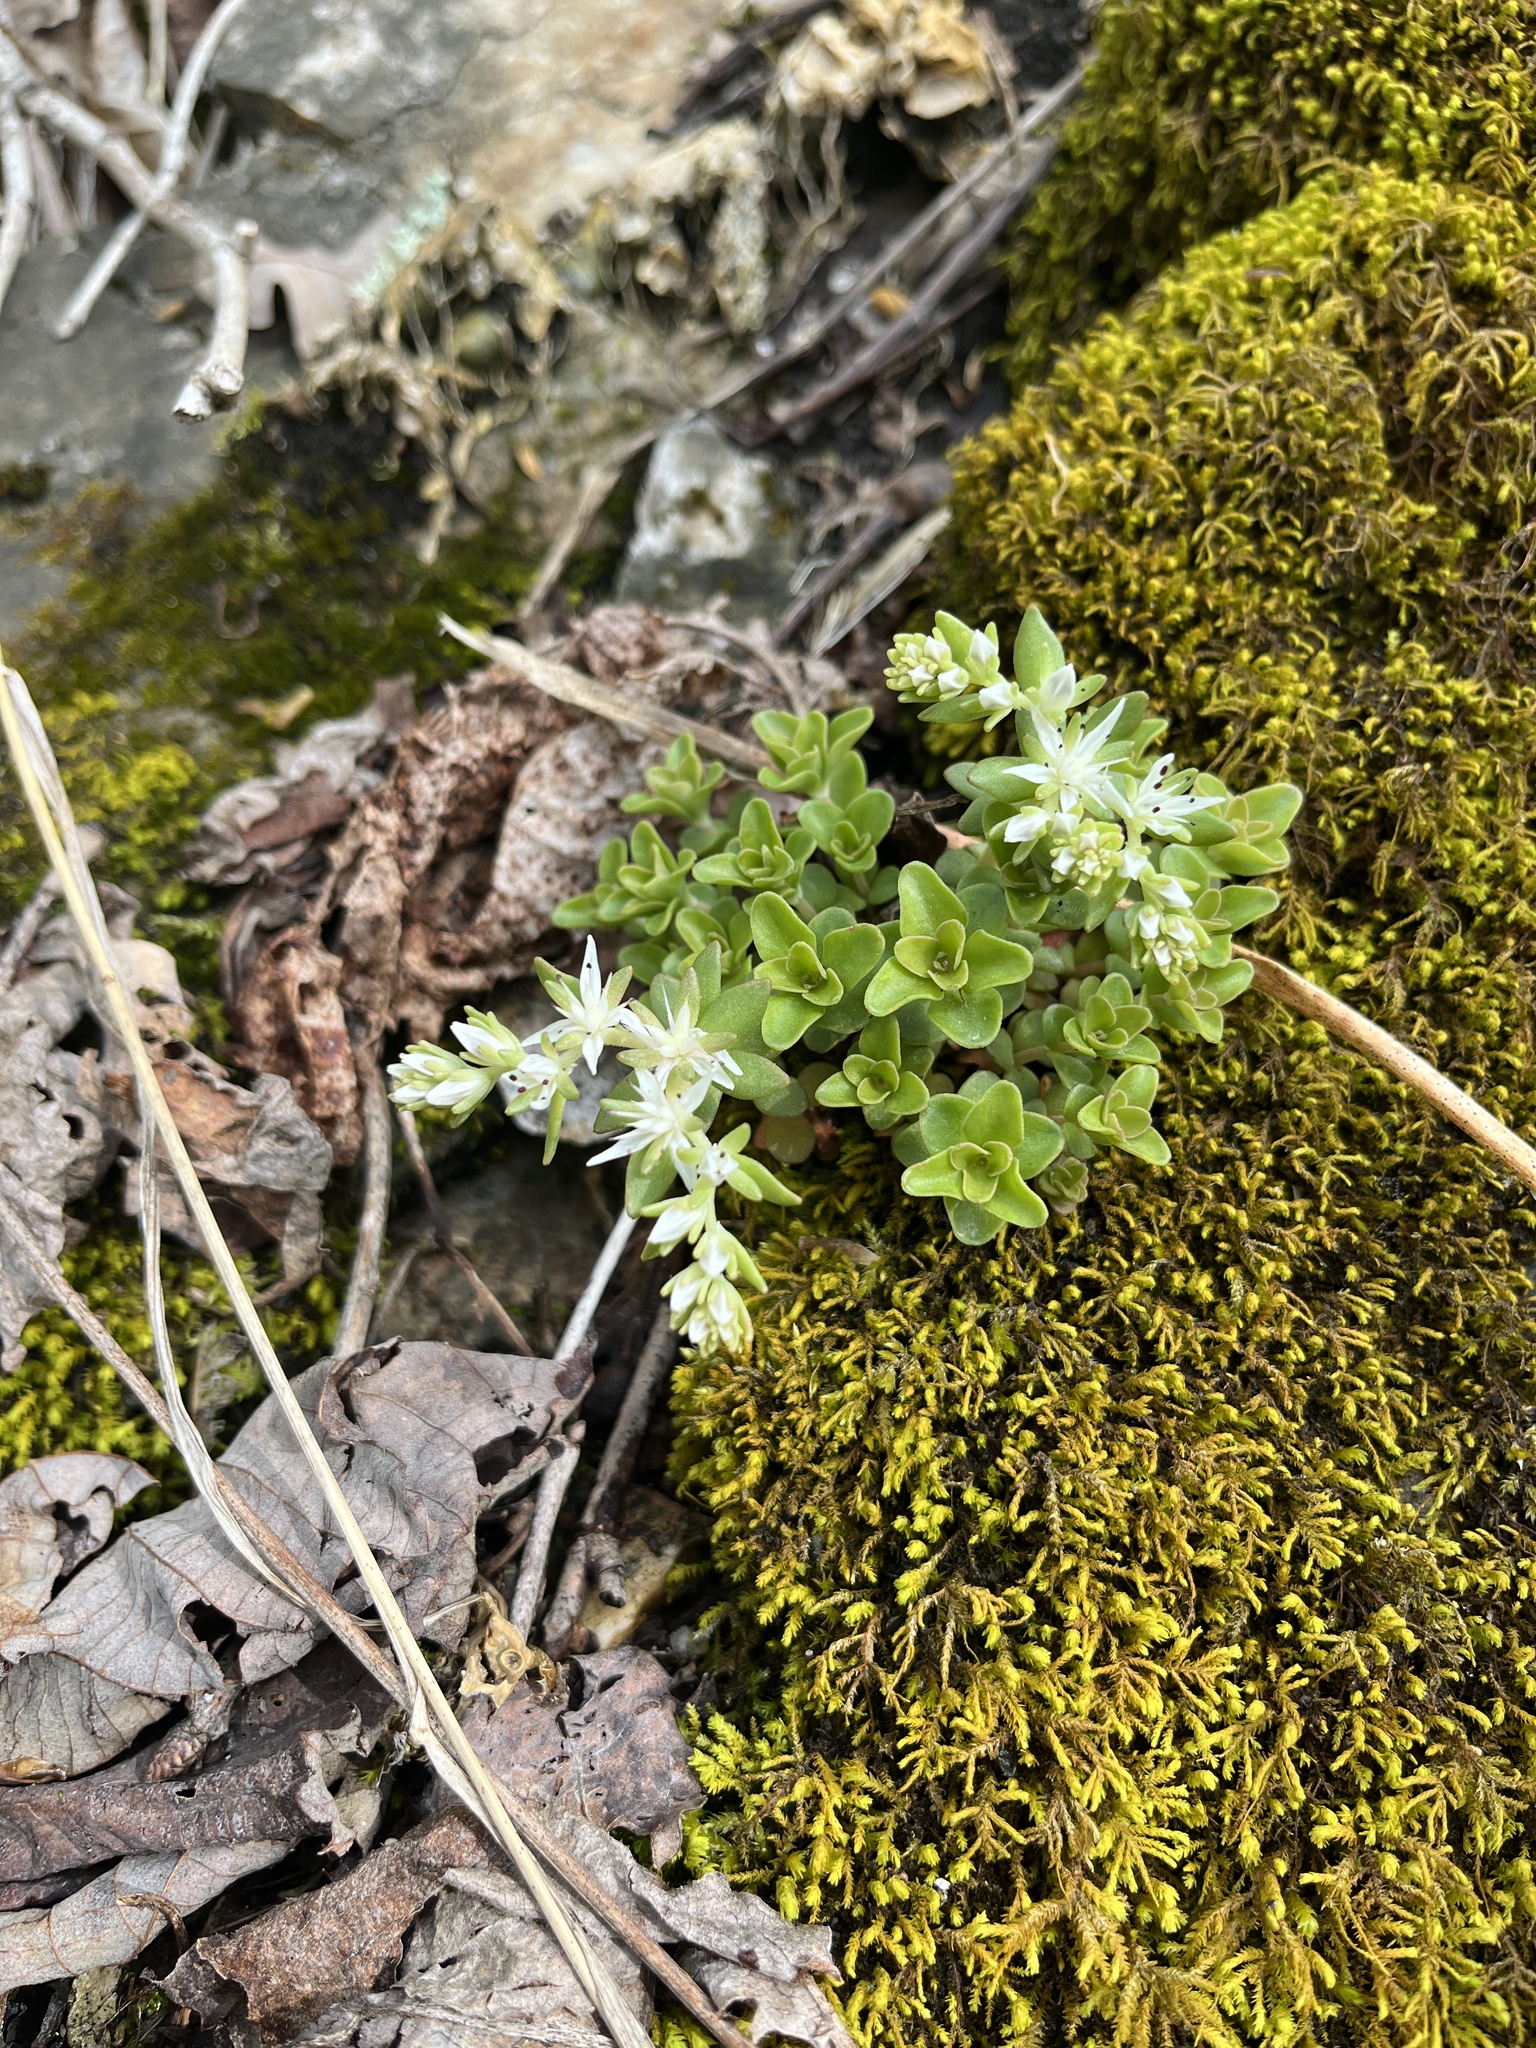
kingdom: Plantae
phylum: Tracheophyta
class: Magnoliopsida
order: Saxifragales
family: Crassulaceae
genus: Sedum
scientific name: Sedum ternatum
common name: Wild stonecrop
